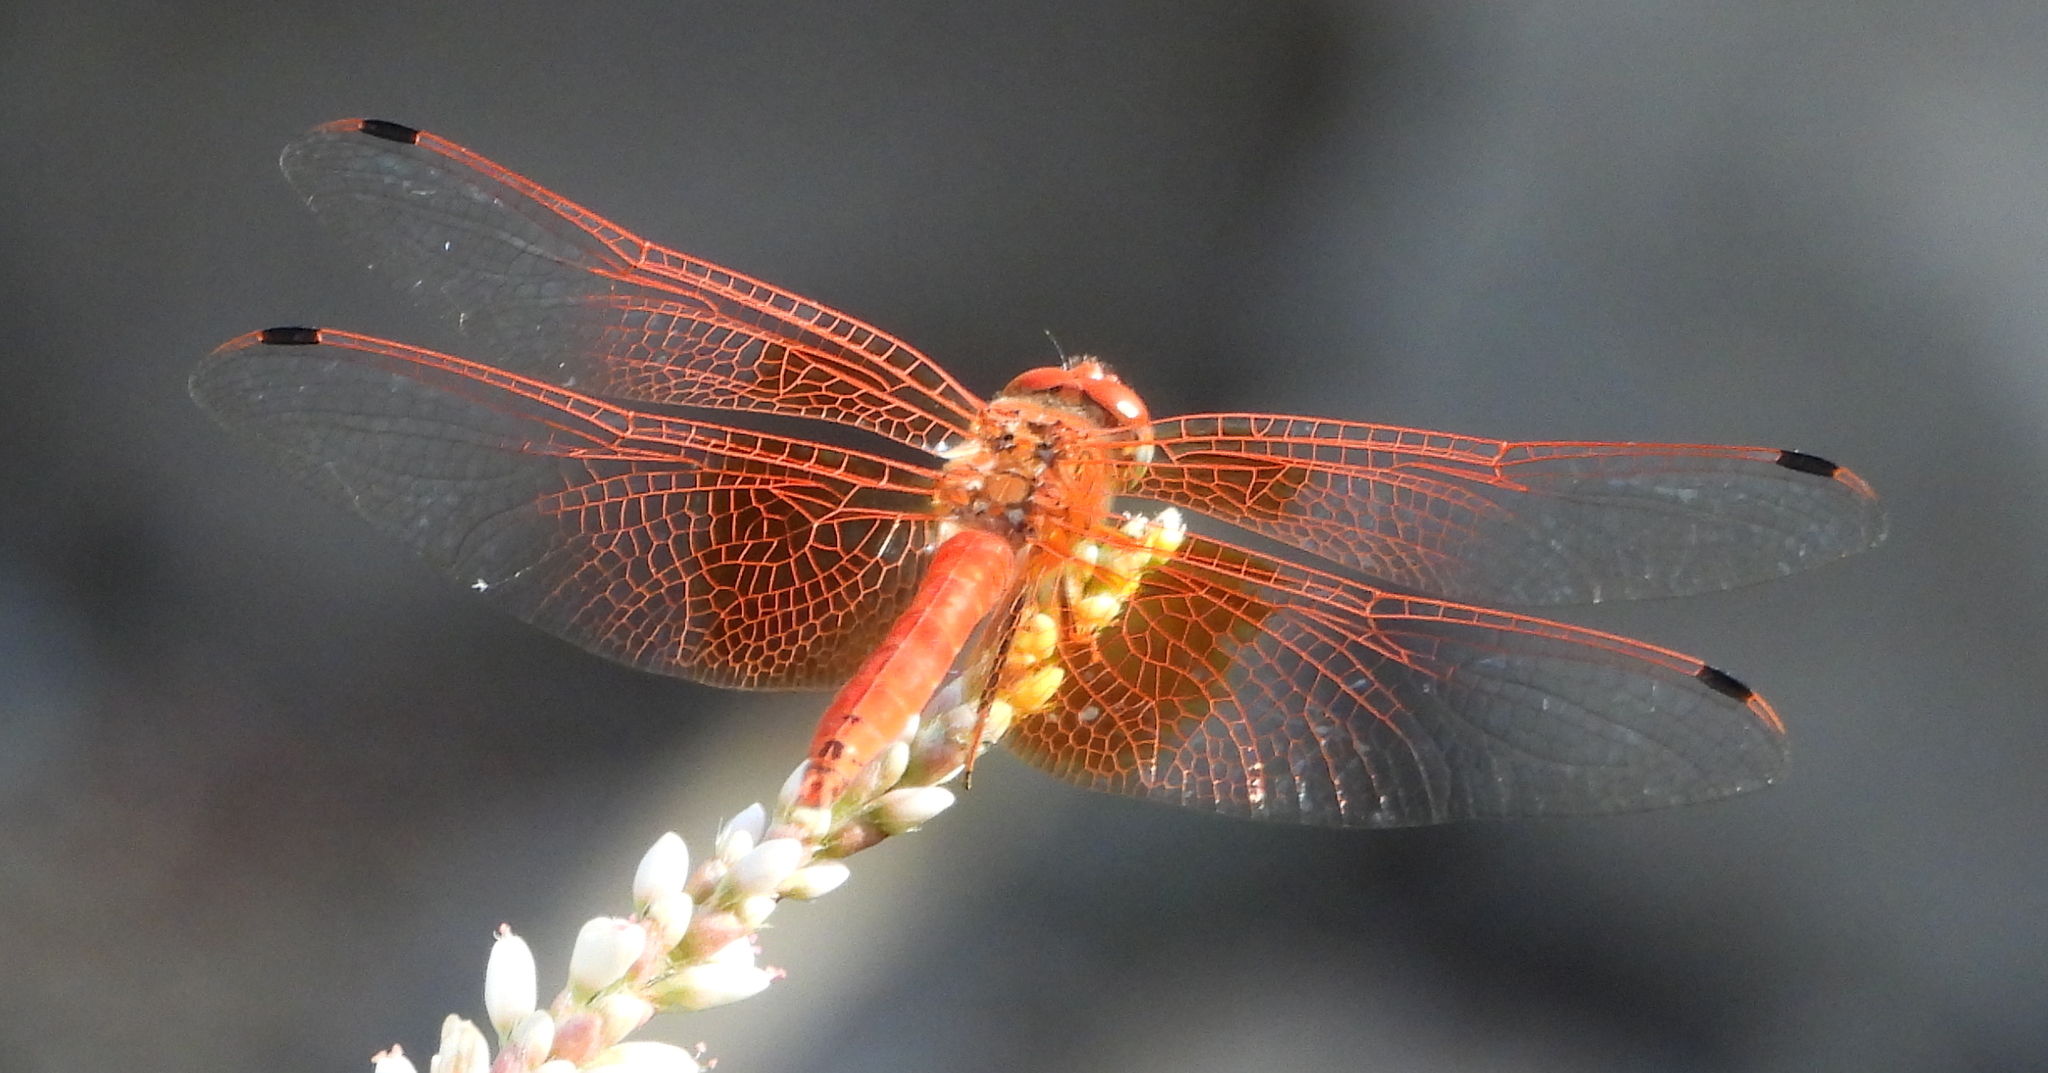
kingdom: Animalia
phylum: Arthropoda
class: Insecta
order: Odonata
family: Libellulidae
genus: Trithemis
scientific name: Trithemis kirbyi
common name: Kirby's dropwing
